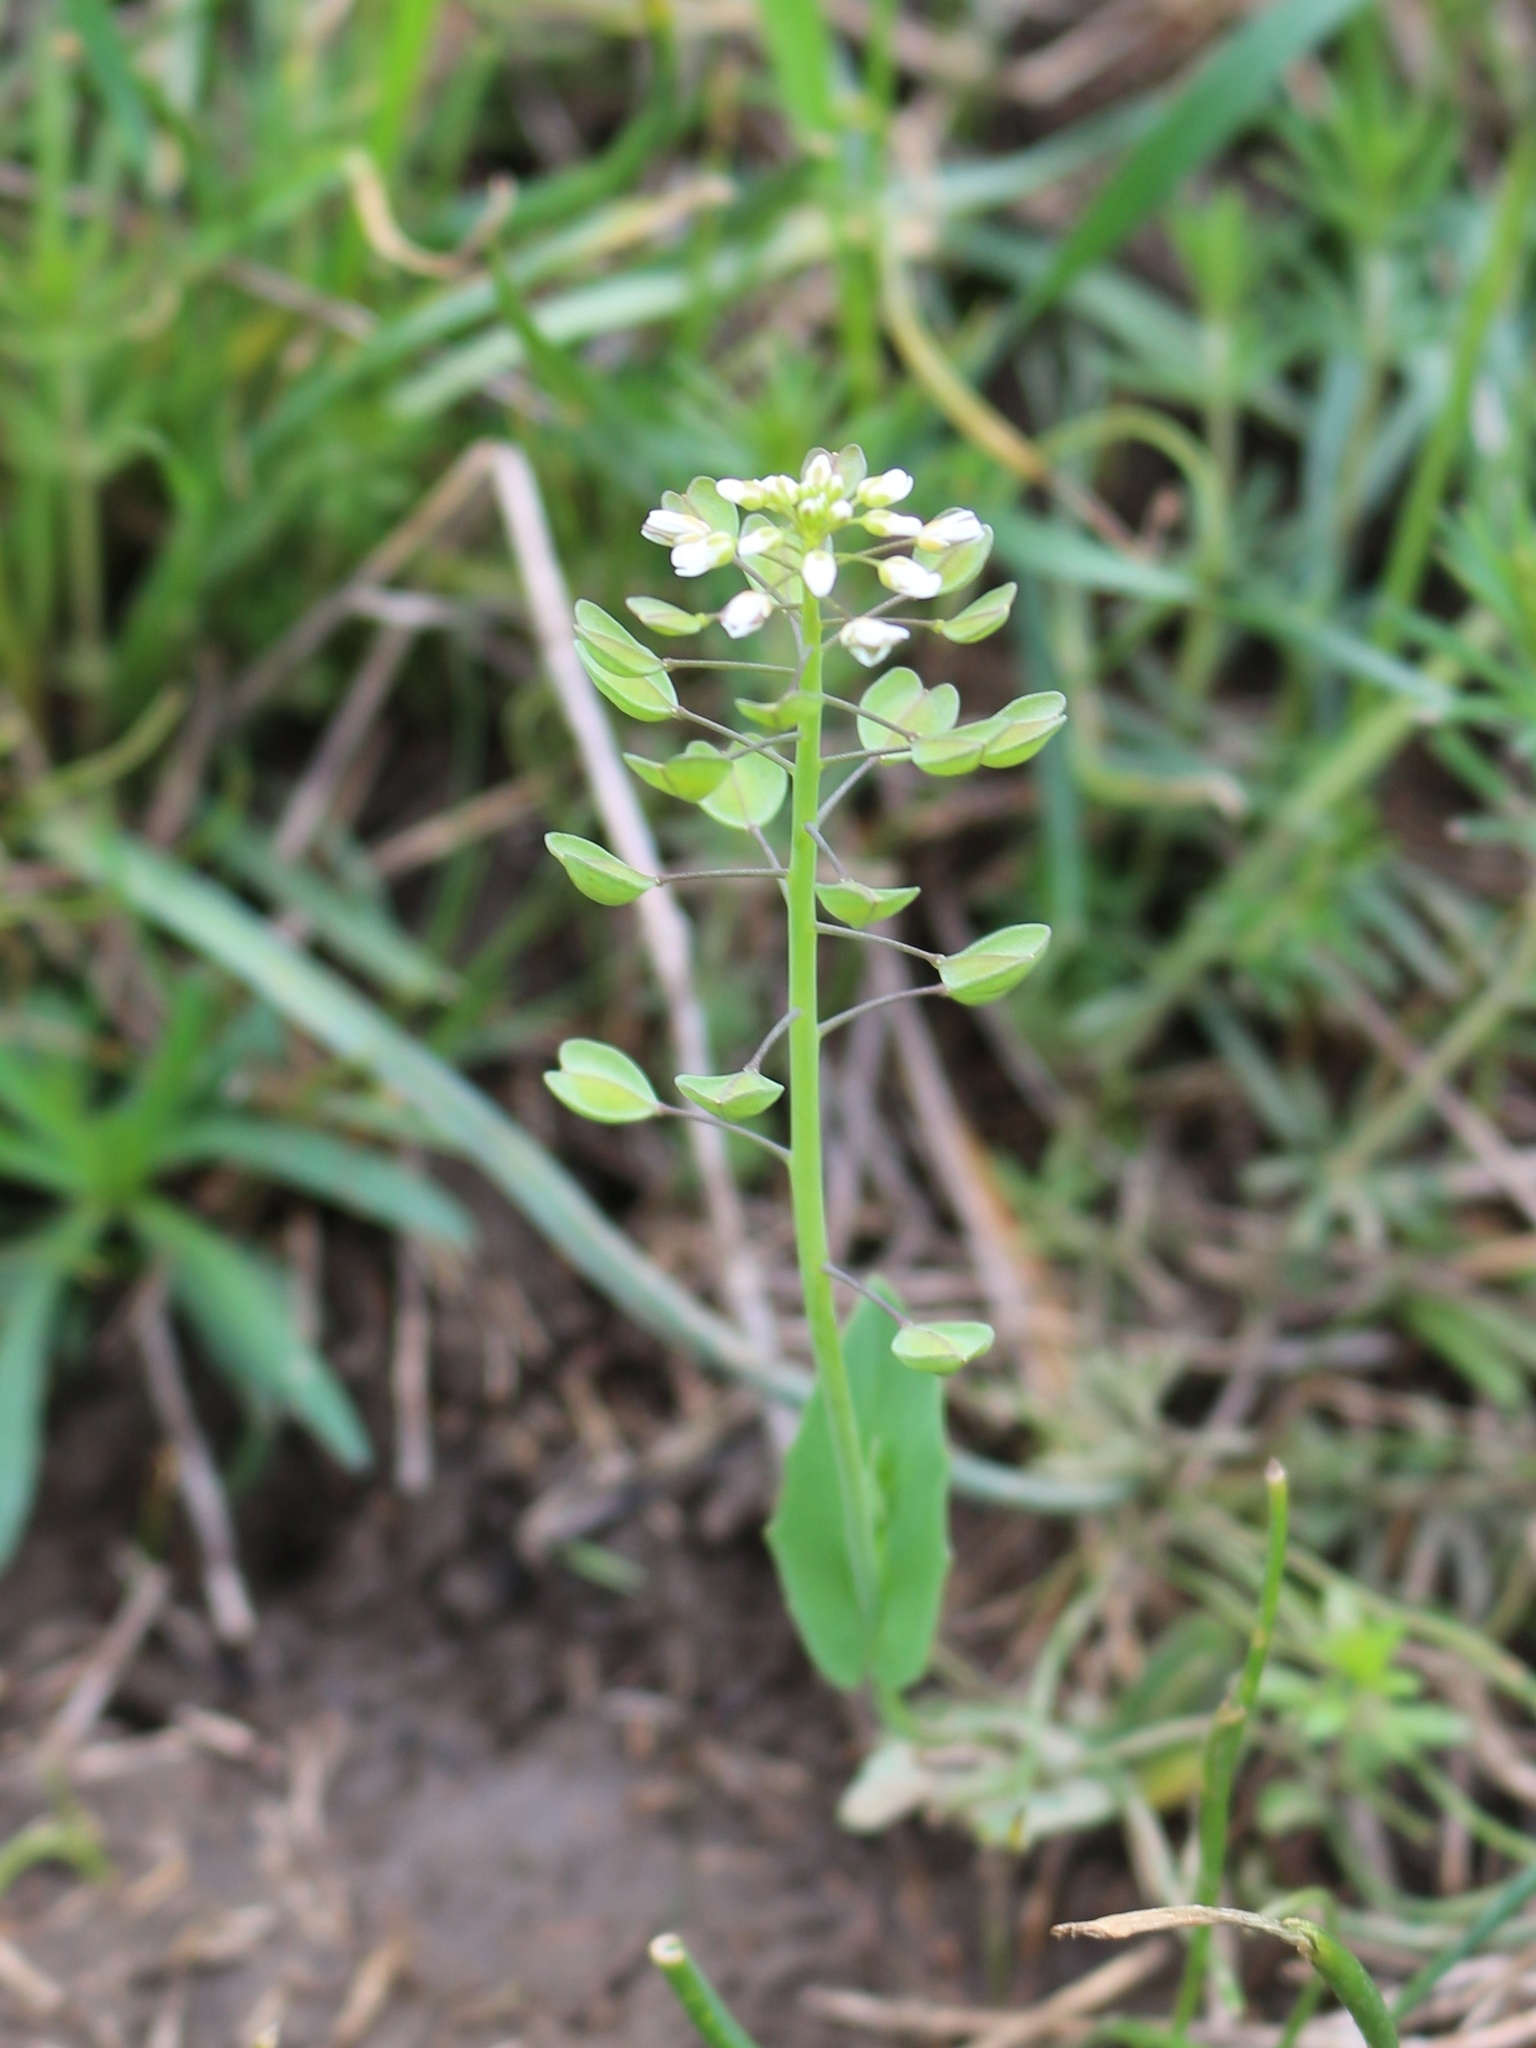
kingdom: Plantae
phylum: Tracheophyta
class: Magnoliopsida
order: Brassicales
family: Brassicaceae
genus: Noccaea
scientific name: Noccaea perfoliata
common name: Perfoliate pennycress
